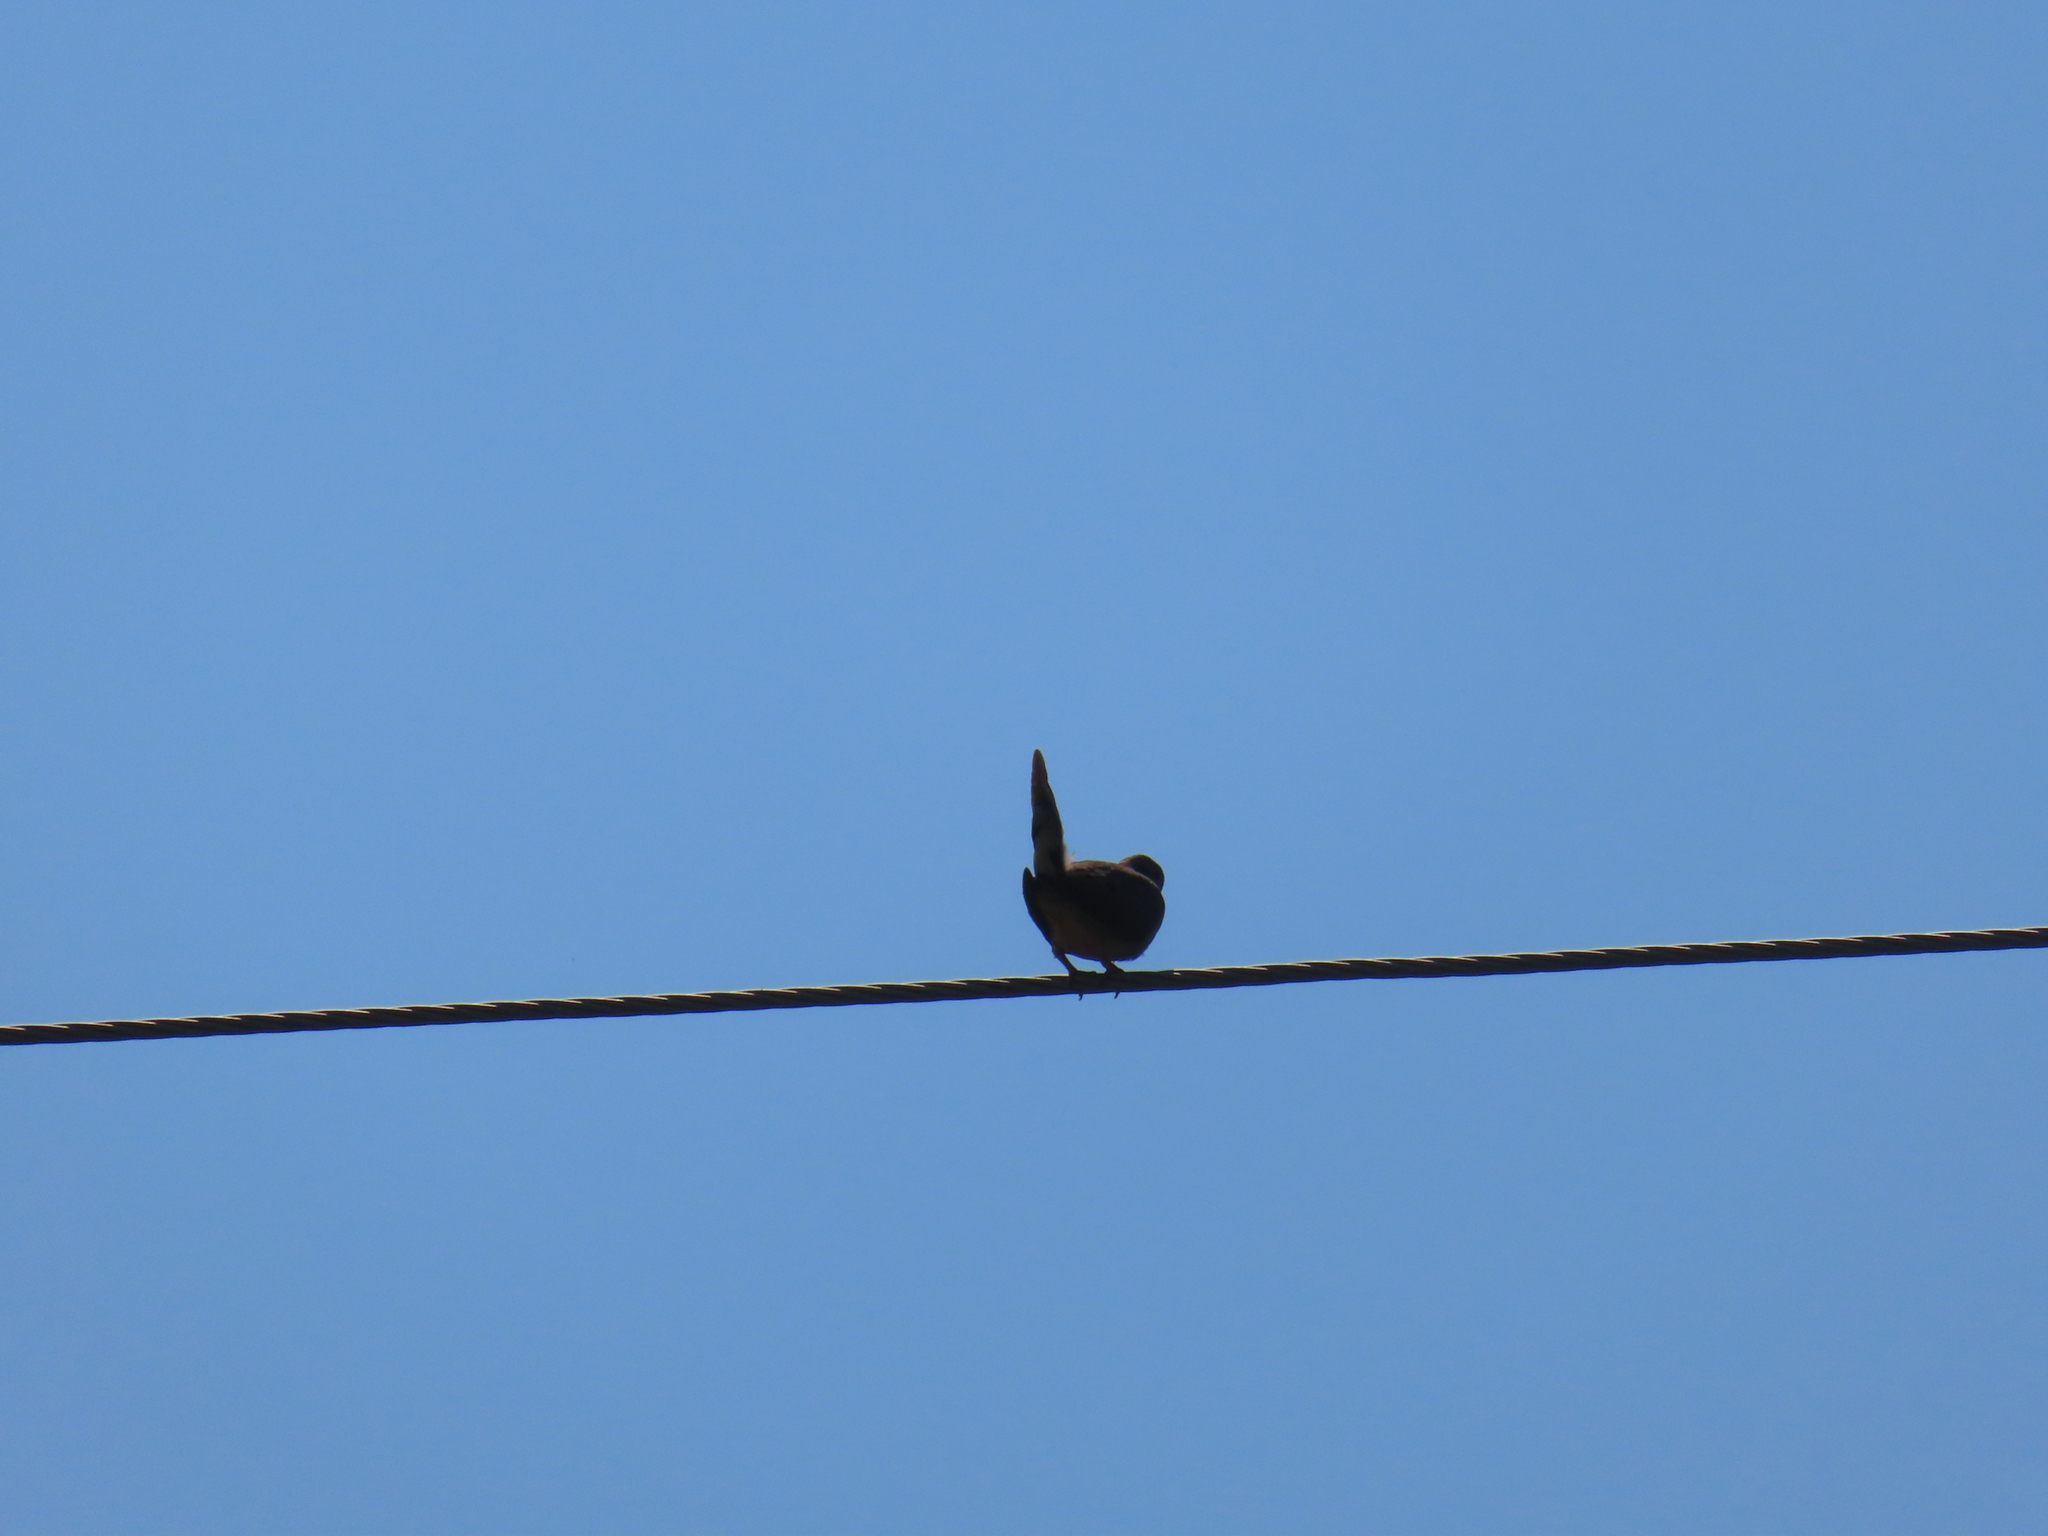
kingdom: Animalia
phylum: Chordata
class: Aves
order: Columbiformes
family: Columbidae
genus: Zenaida
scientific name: Zenaida macroura
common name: Mourning dove
